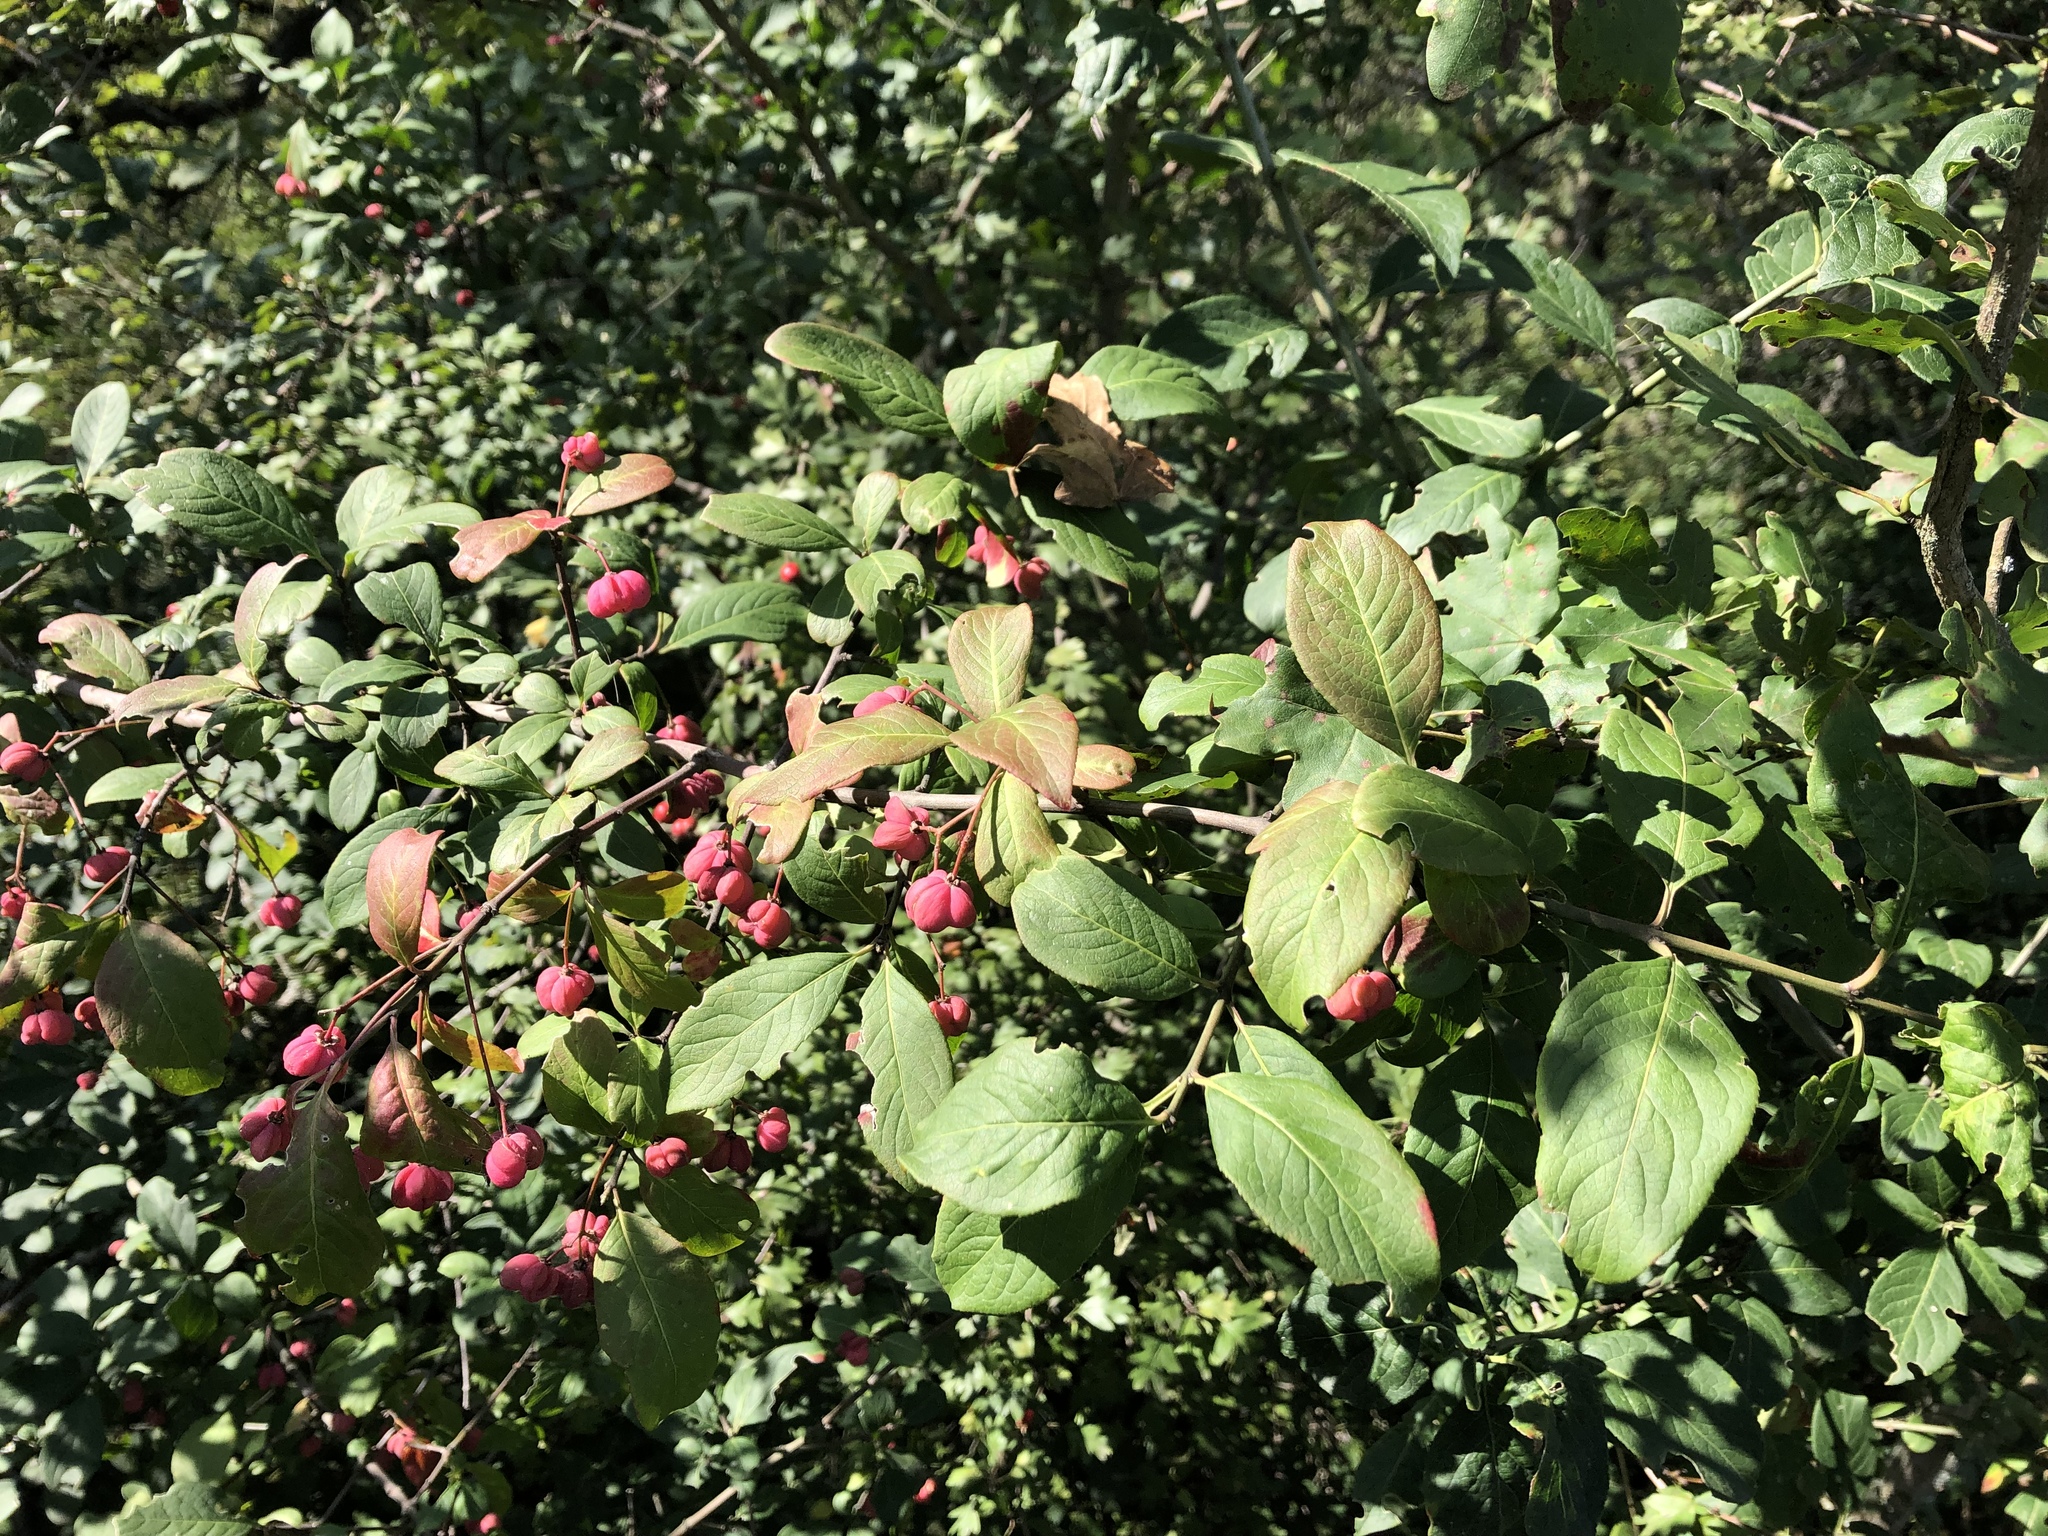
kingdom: Plantae
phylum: Tracheophyta
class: Magnoliopsida
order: Celastrales
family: Celastraceae
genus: Euonymus
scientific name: Euonymus europaeus
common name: Spindle
